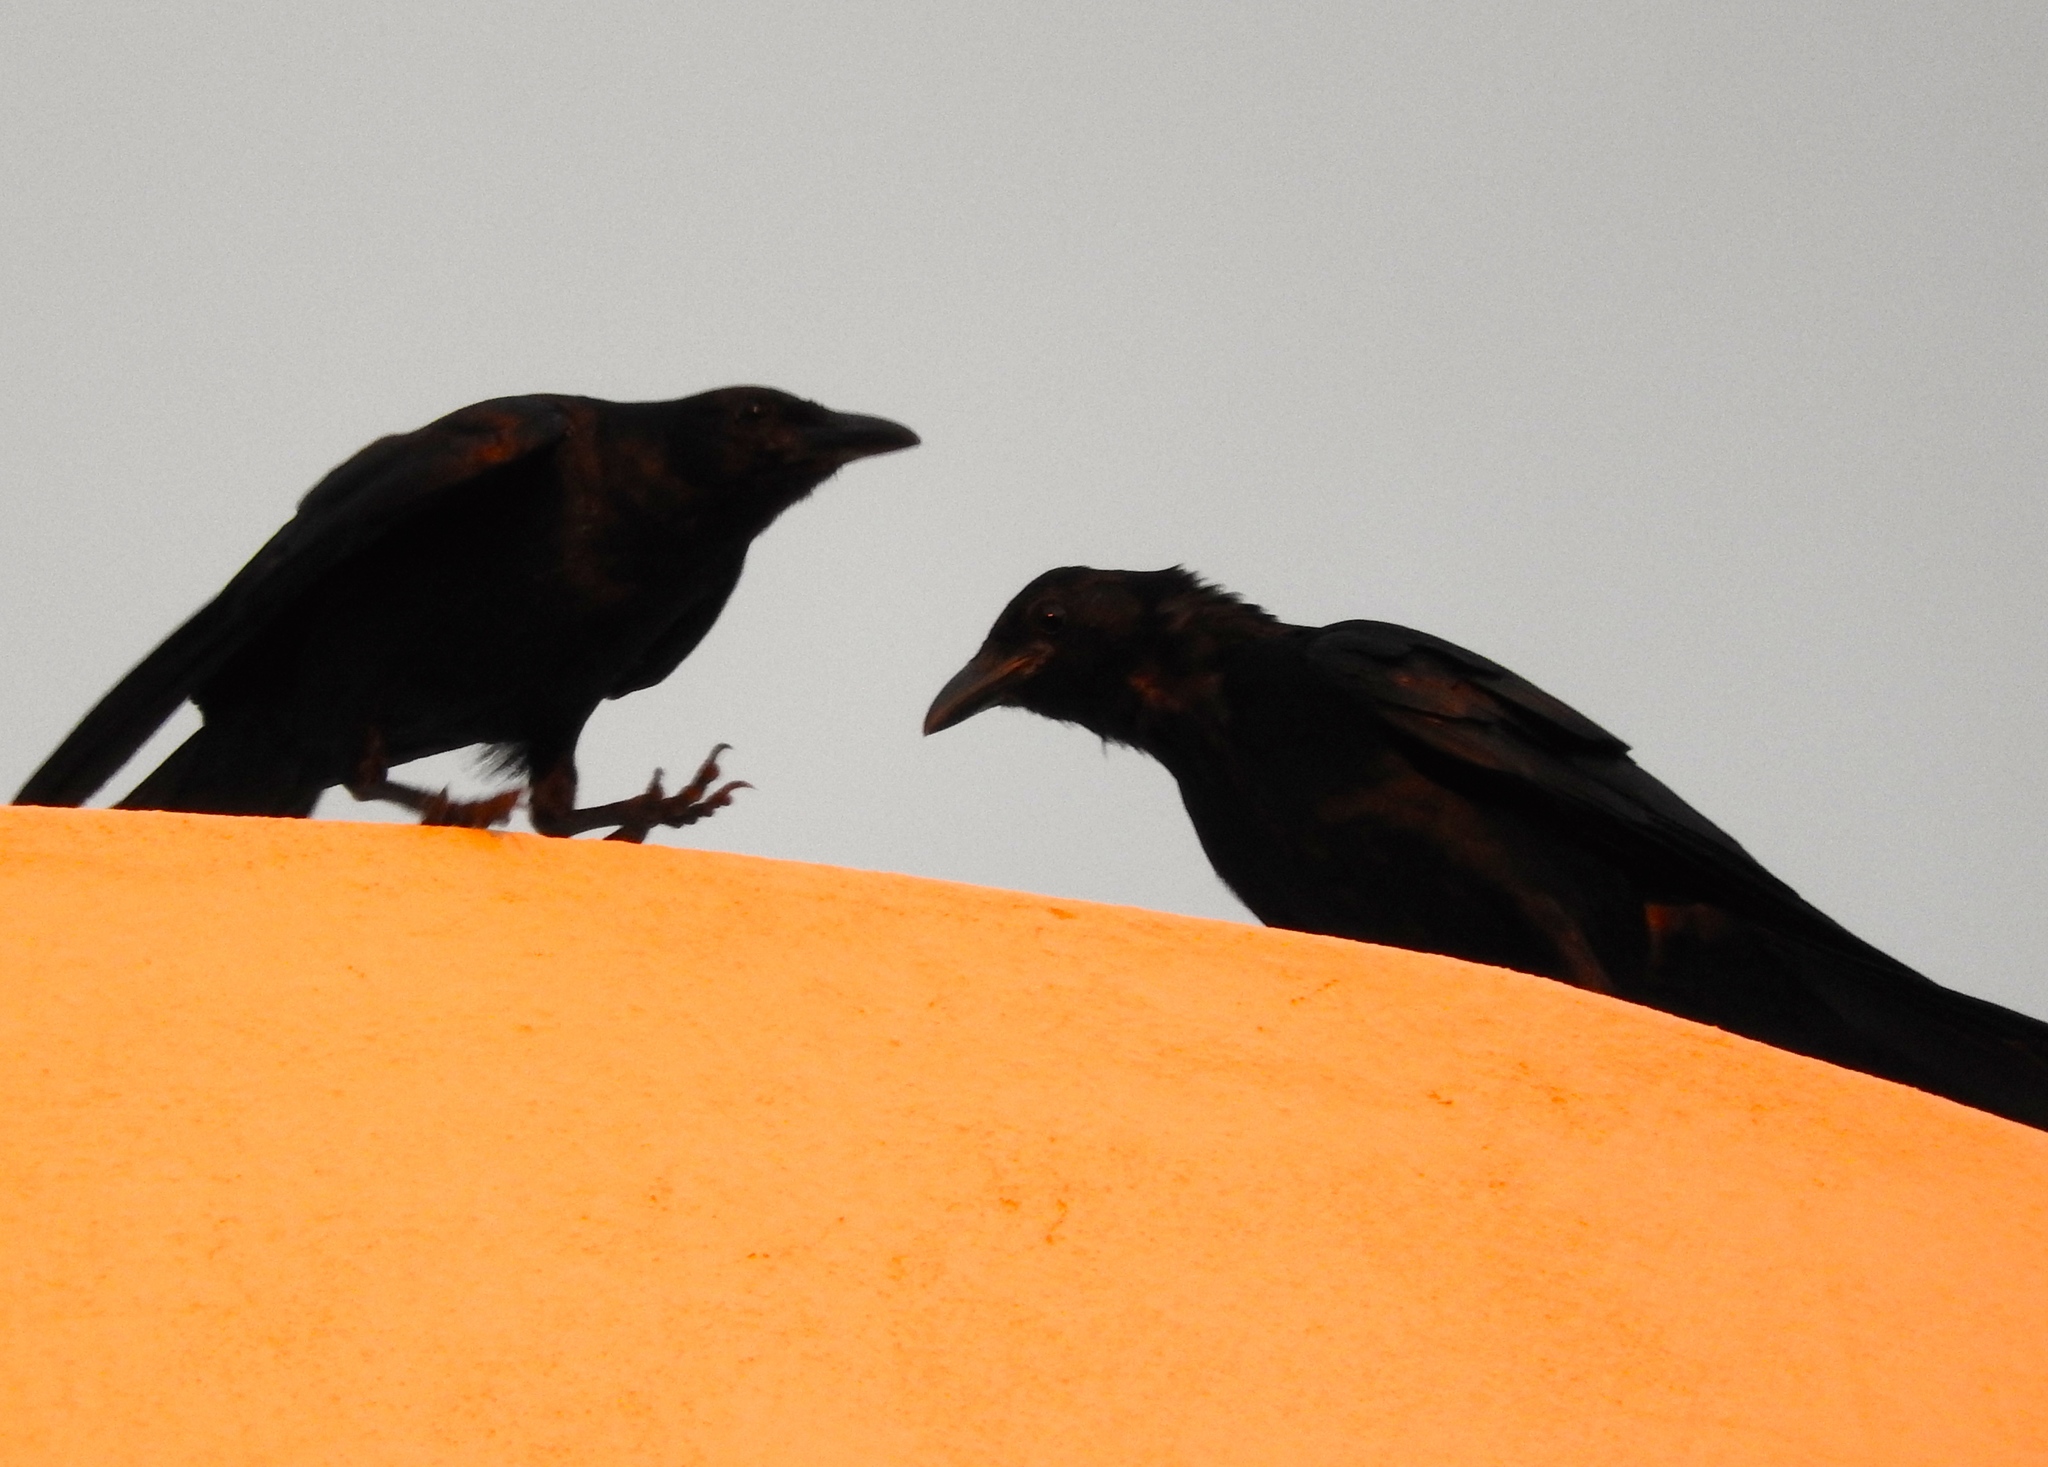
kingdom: Animalia
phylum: Chordata
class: Aves
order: Passeriformes
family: Corvidae
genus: Corvus
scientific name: Corvus sinaloae
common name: Sinaloa crow
